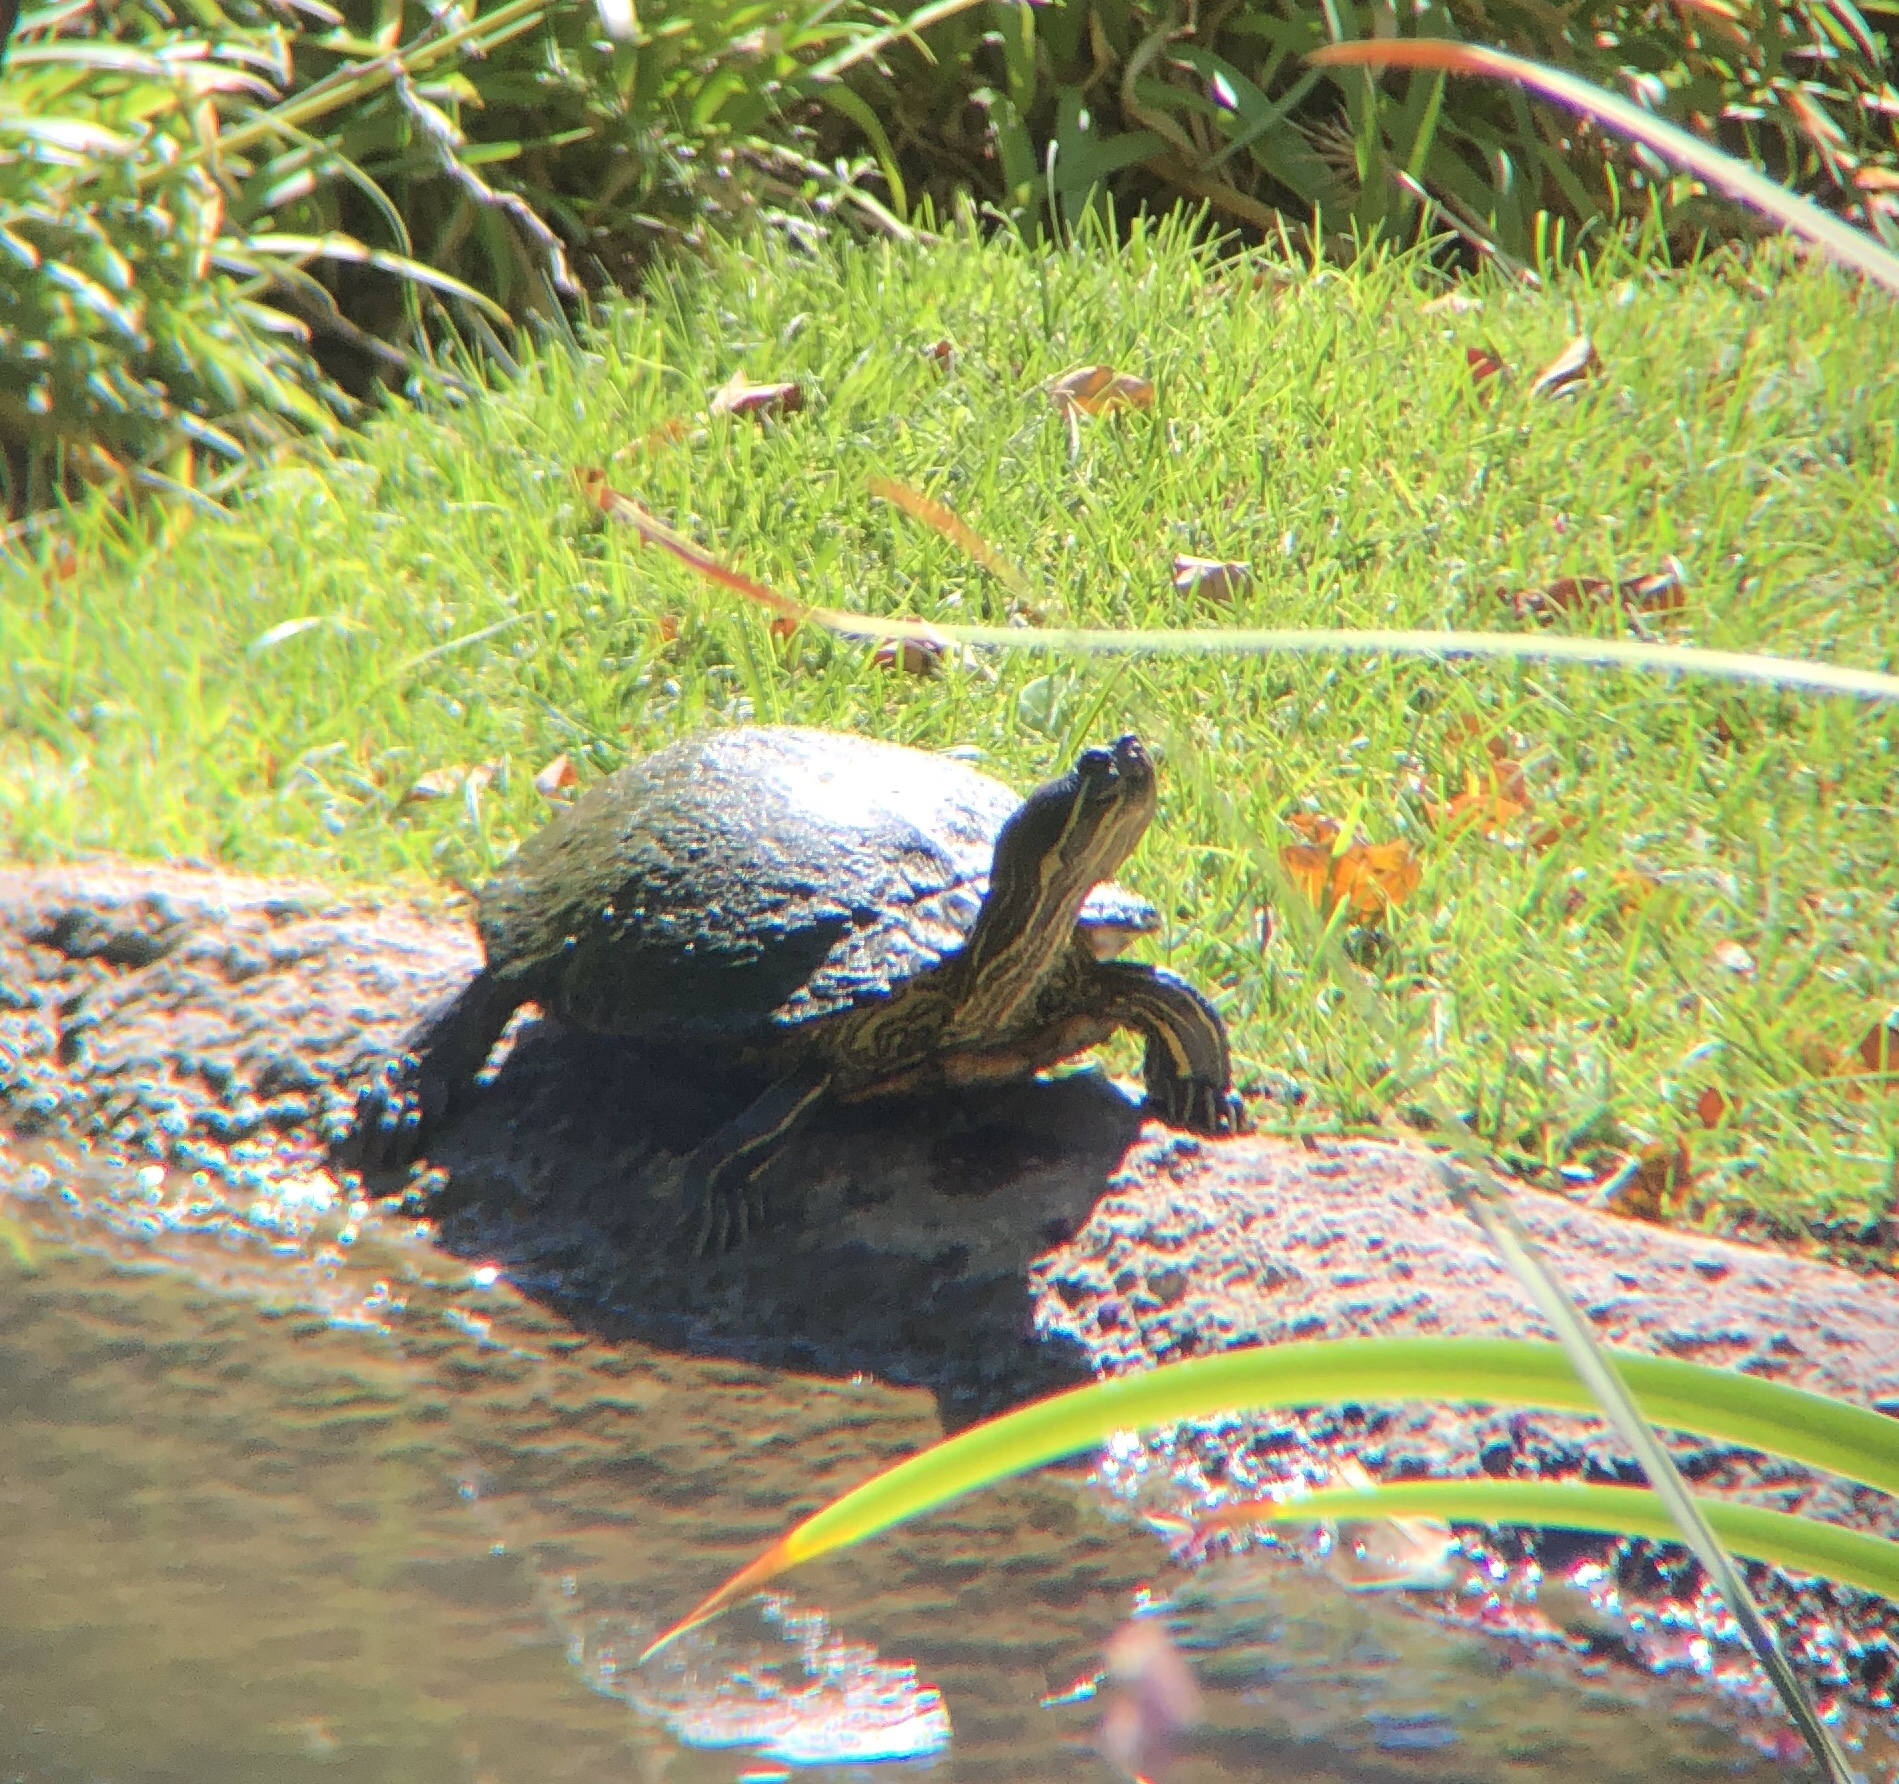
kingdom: Animalia
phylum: Chordata
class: Testudines
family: Emydidae
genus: Trachemys
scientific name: Trachemys scripta
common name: Slider
